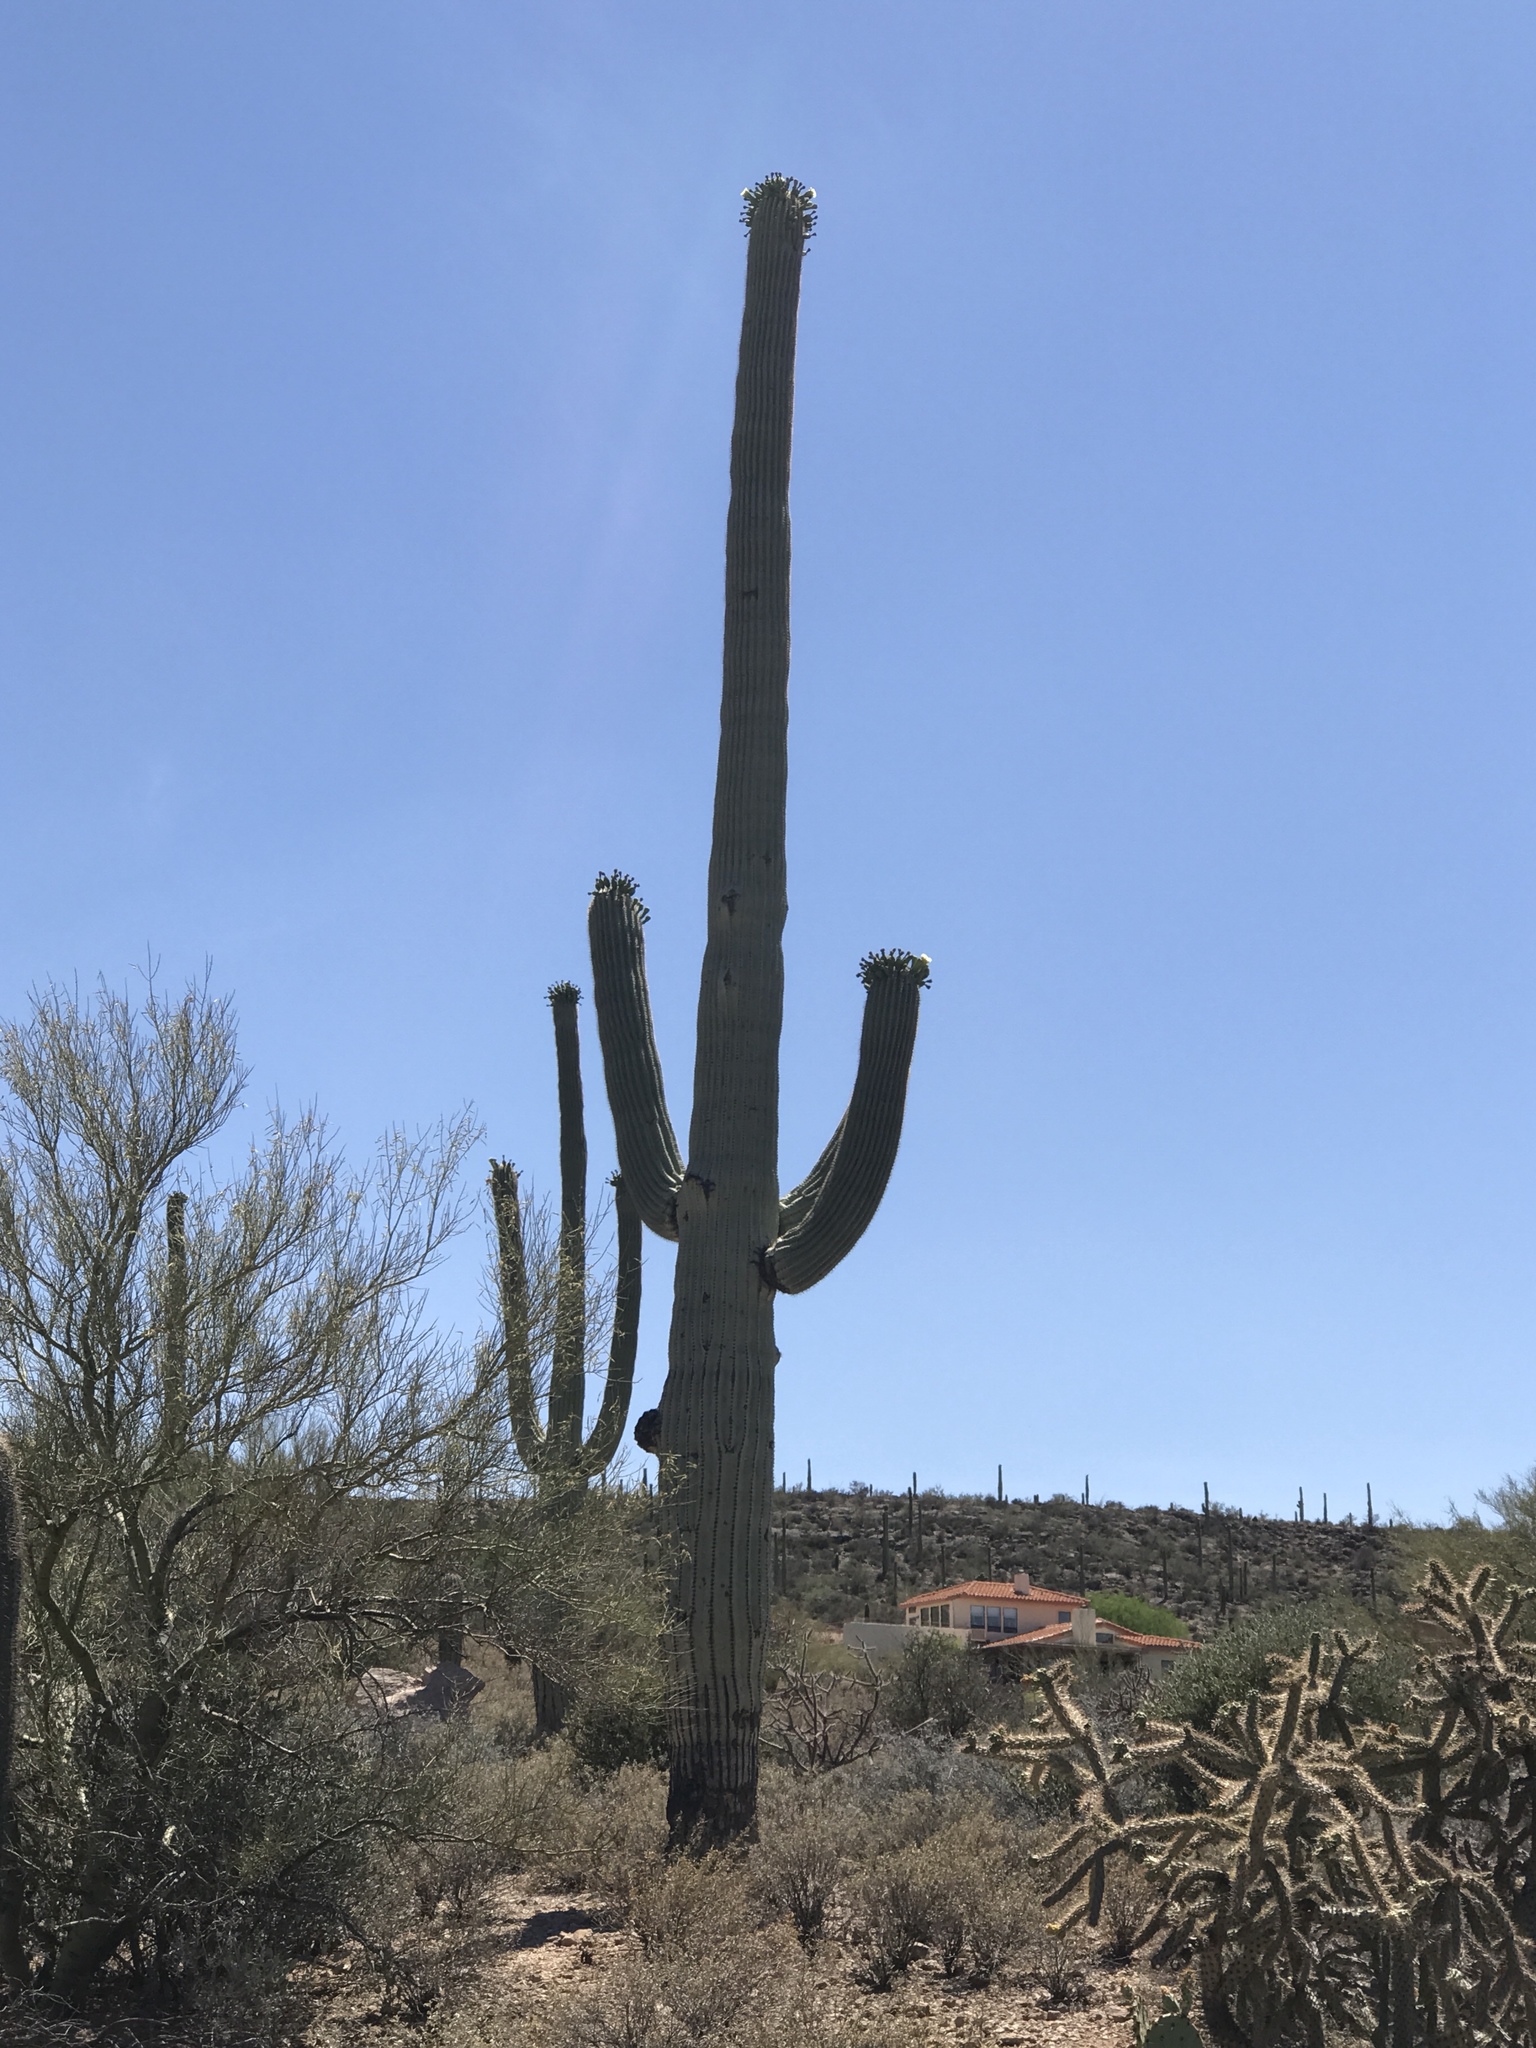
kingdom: Plantae
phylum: Tracheophyta
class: Magnoliopsida
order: Caryophyllales
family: Cactaceae
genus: Carnegiea
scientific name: Carnegiea gigantea
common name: Saguaro
